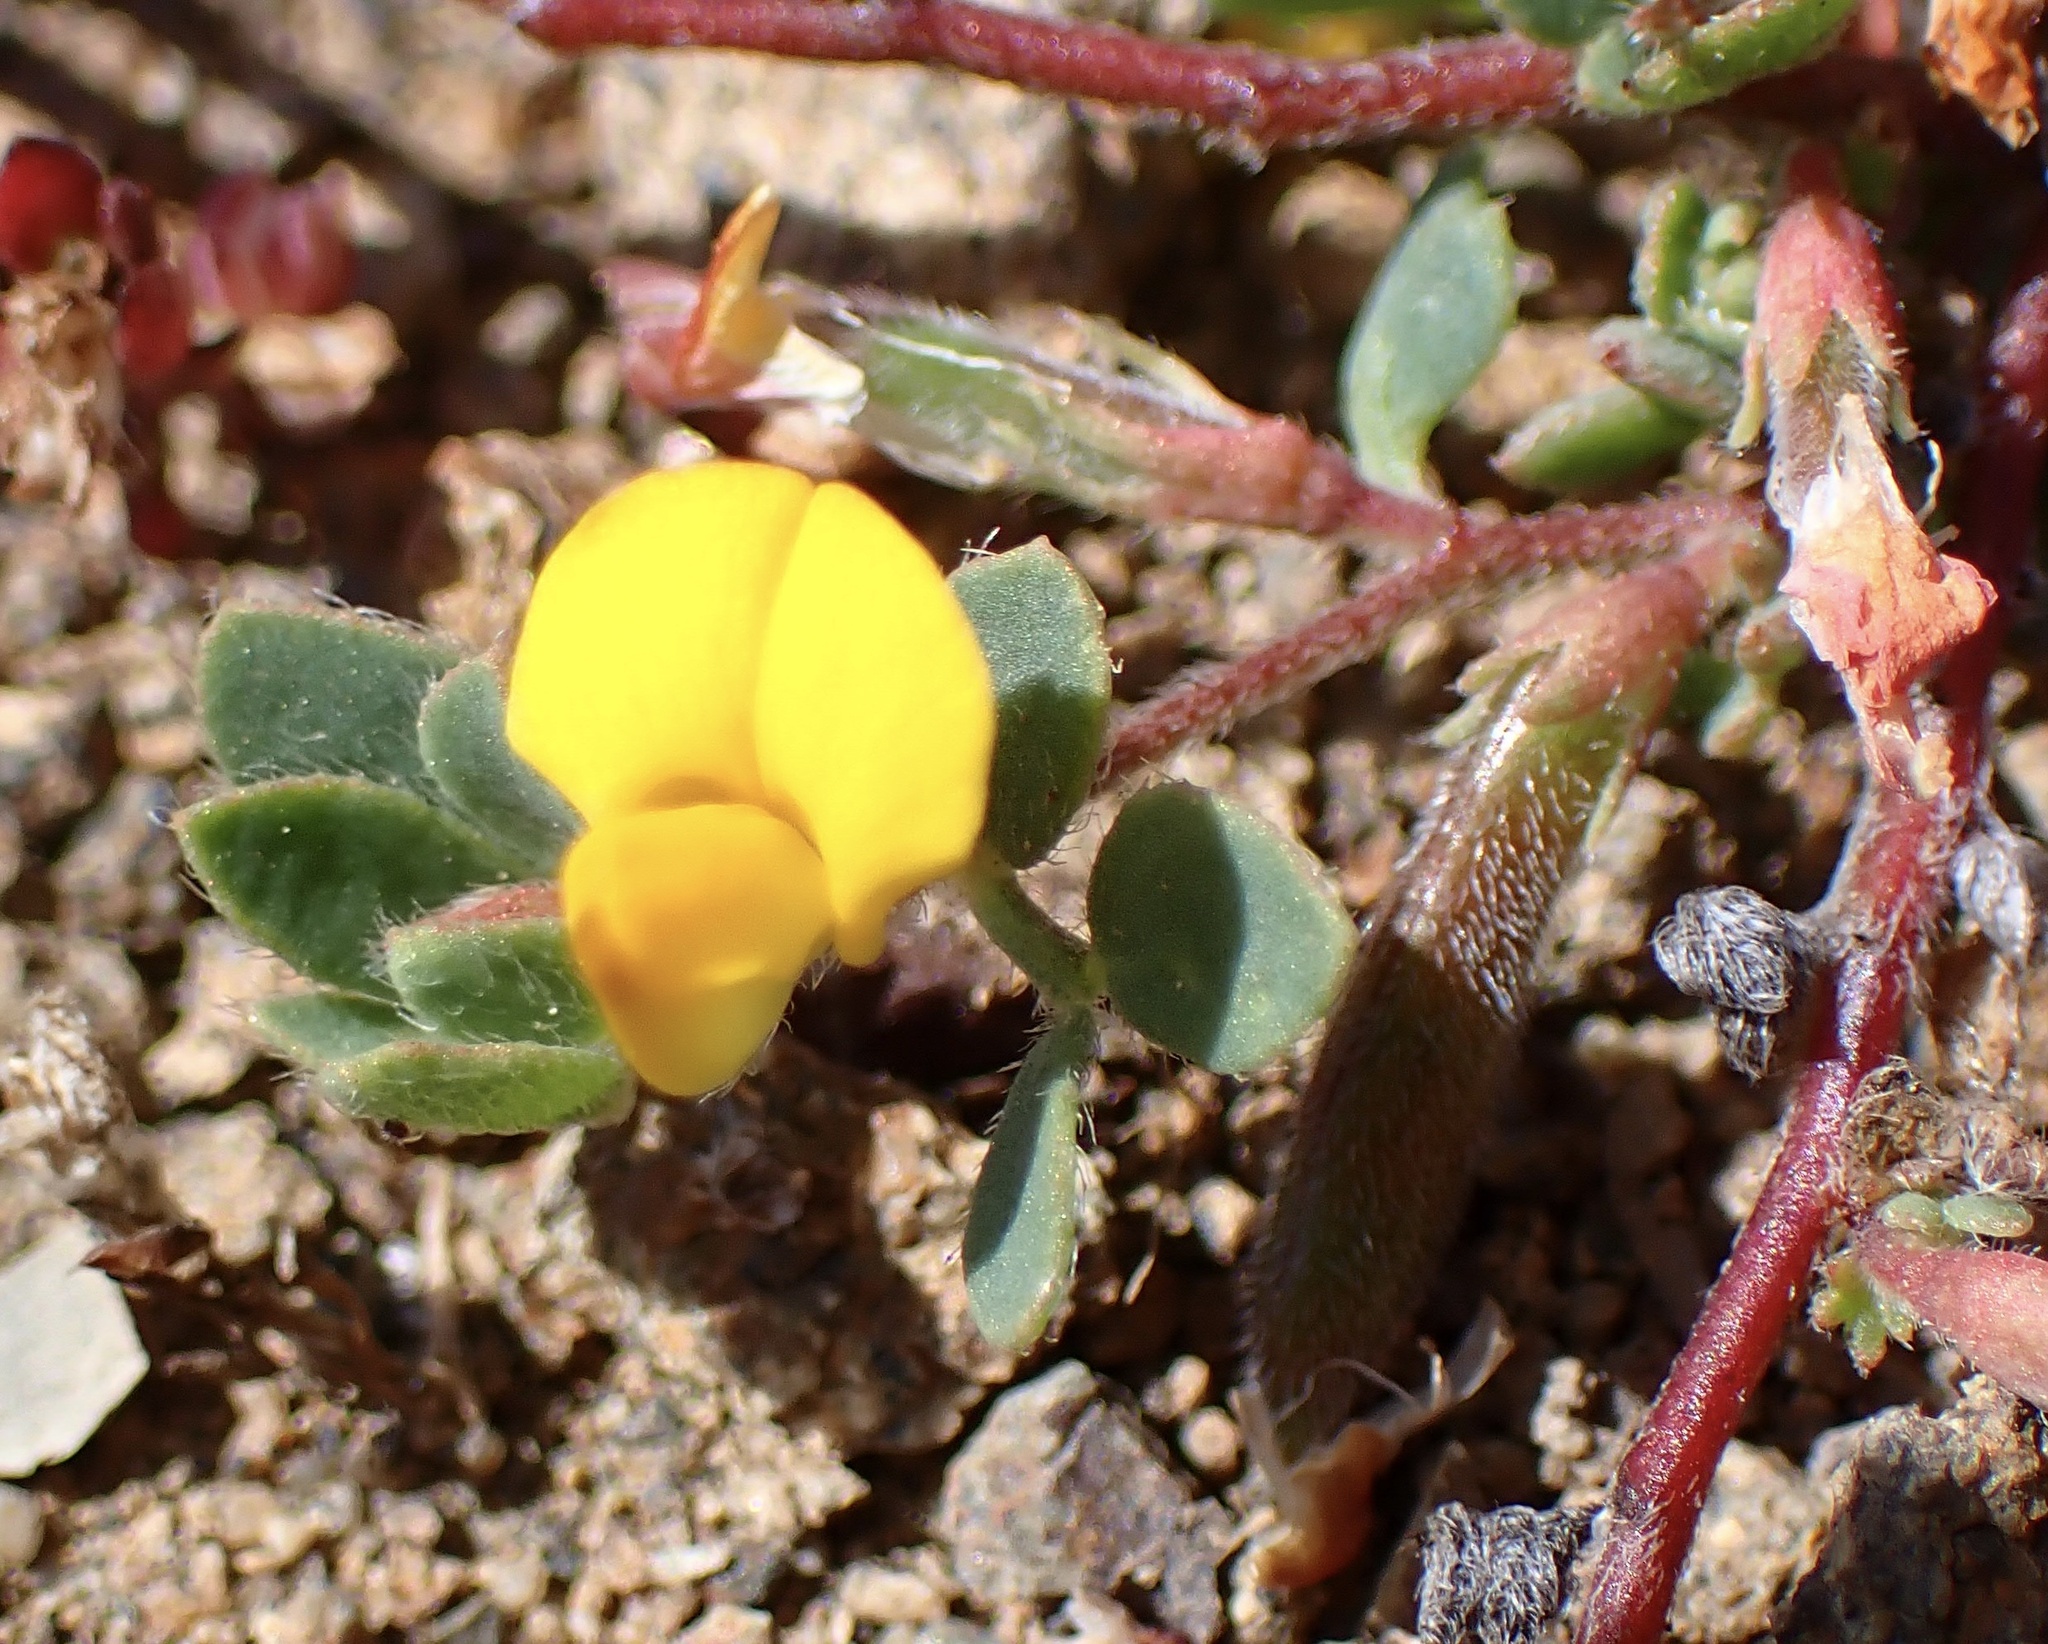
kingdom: Plantae
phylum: Tracheophyta
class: Magnoliopsida
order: Fabales
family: Fabaceae
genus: Acmispon
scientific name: Acmispon wrangelianus
